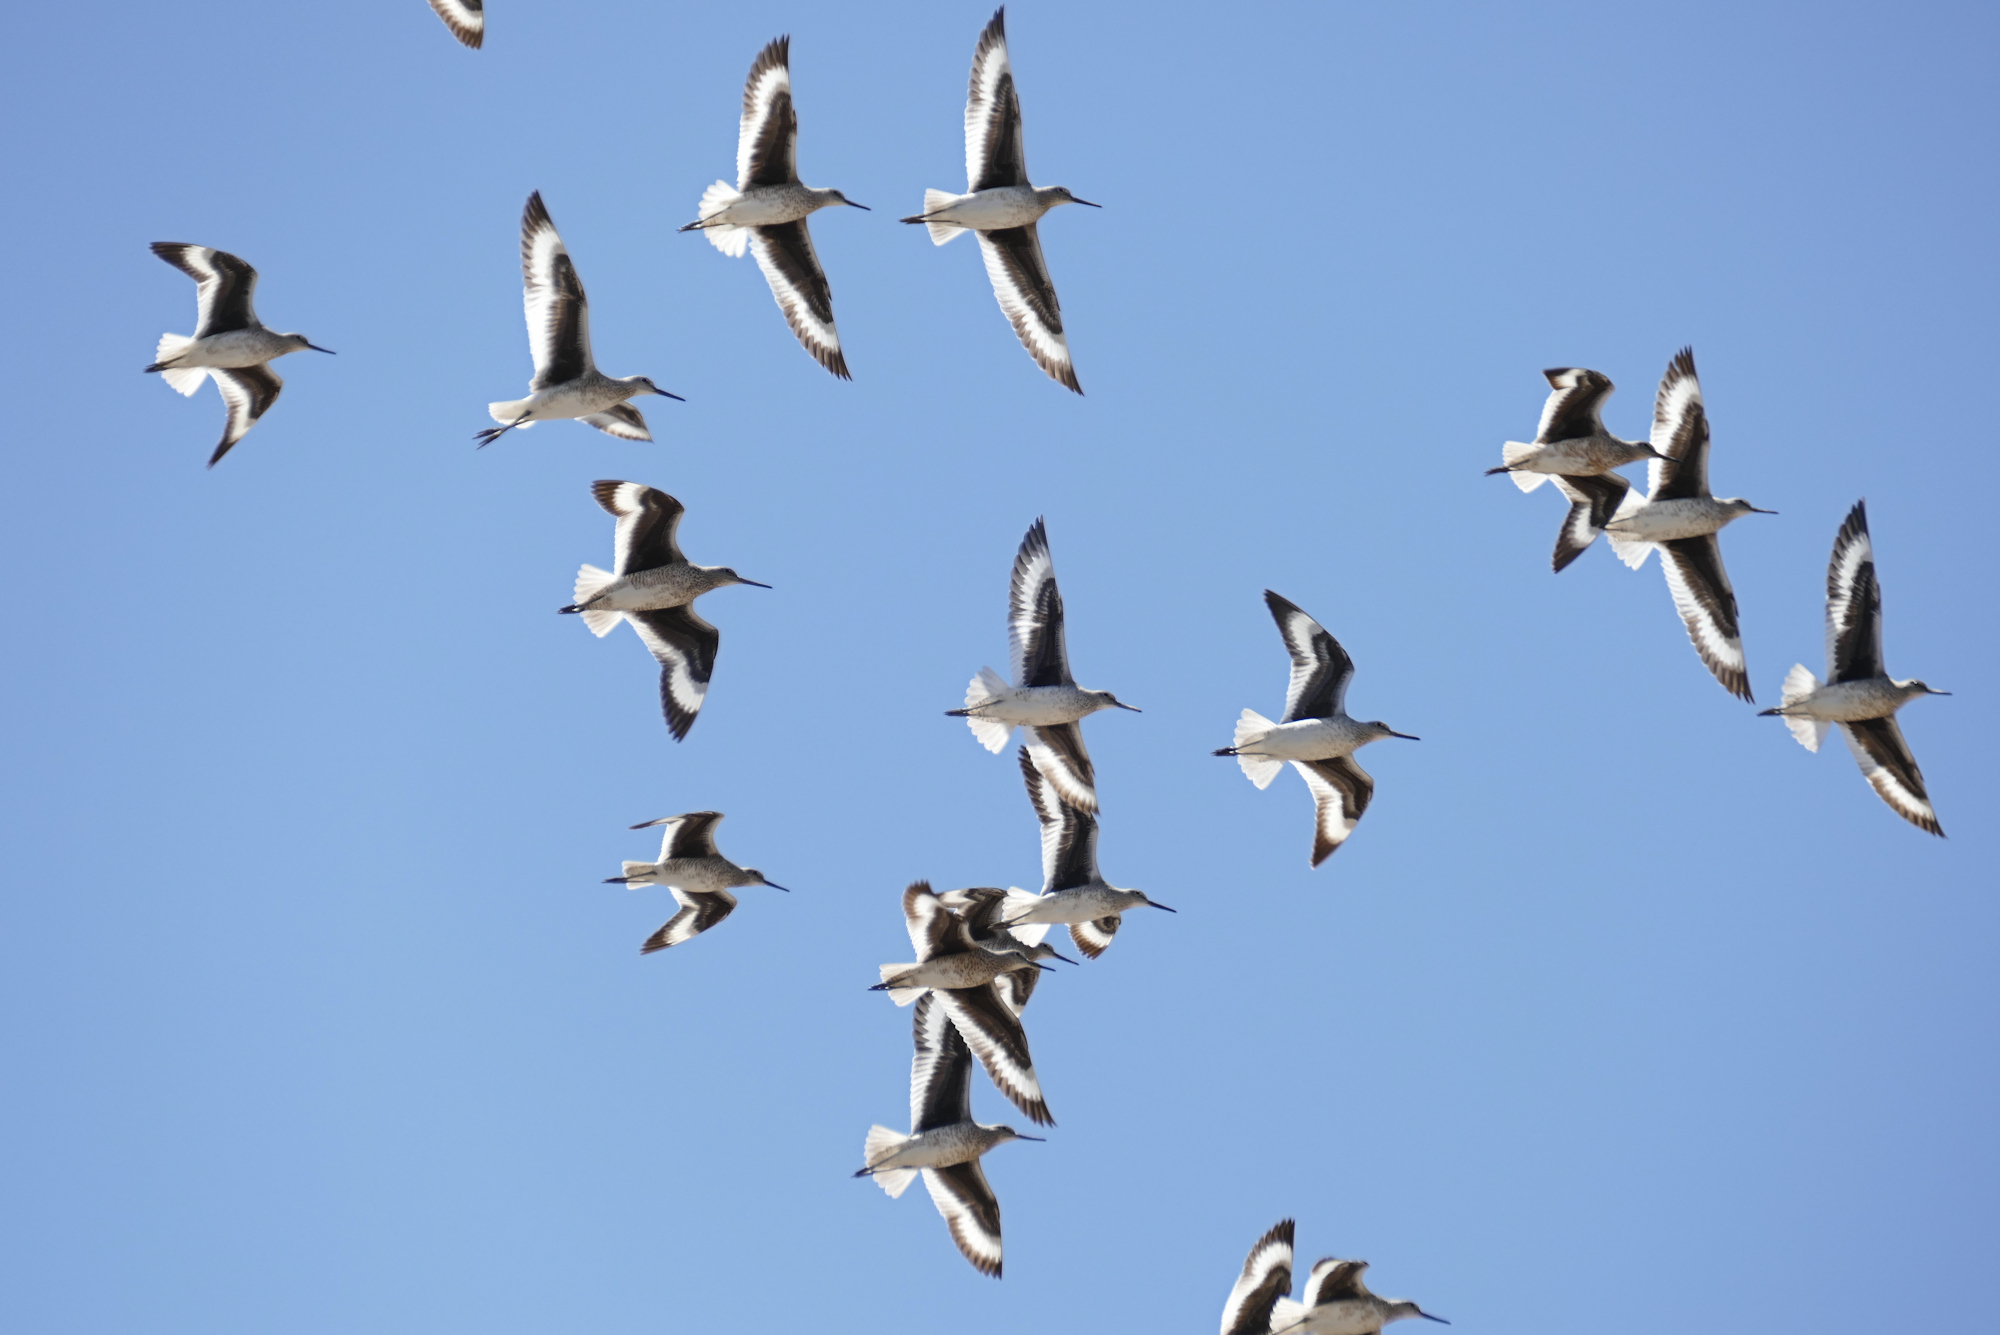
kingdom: Animalia
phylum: Chordata
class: Aves
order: Charadriiformes
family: Scolopacidae
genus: Tringa
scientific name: Tringa semipalmata
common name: Willet
